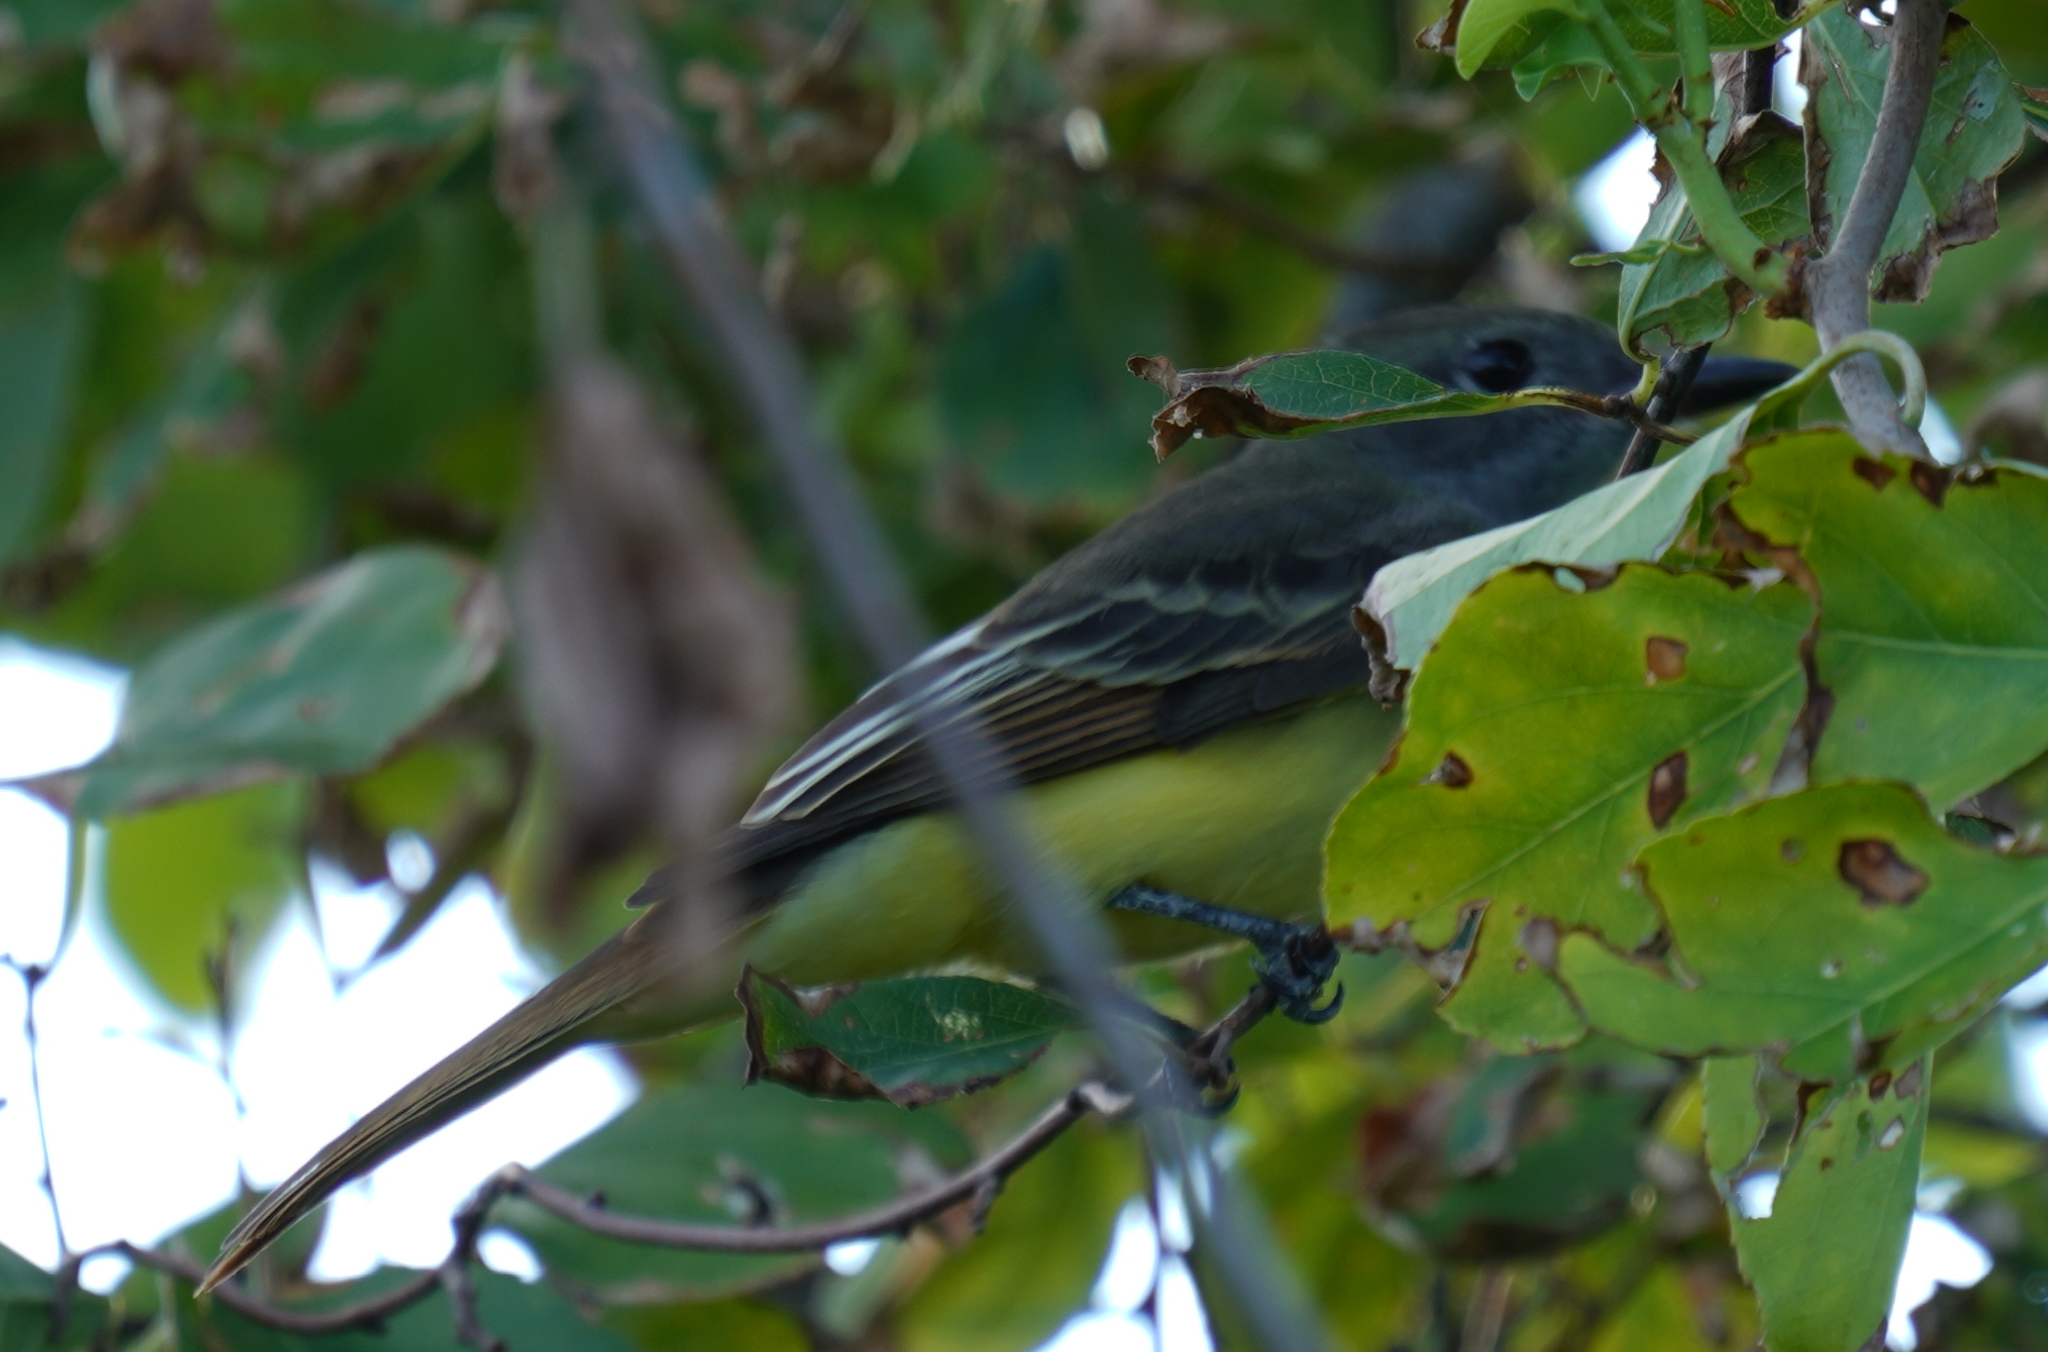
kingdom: Animalia
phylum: Chordata
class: Aves
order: Passeriformes
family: Tyrannidae
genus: Myiarchus
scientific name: Myiarchus crinitus
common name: Great crested flycatcher
